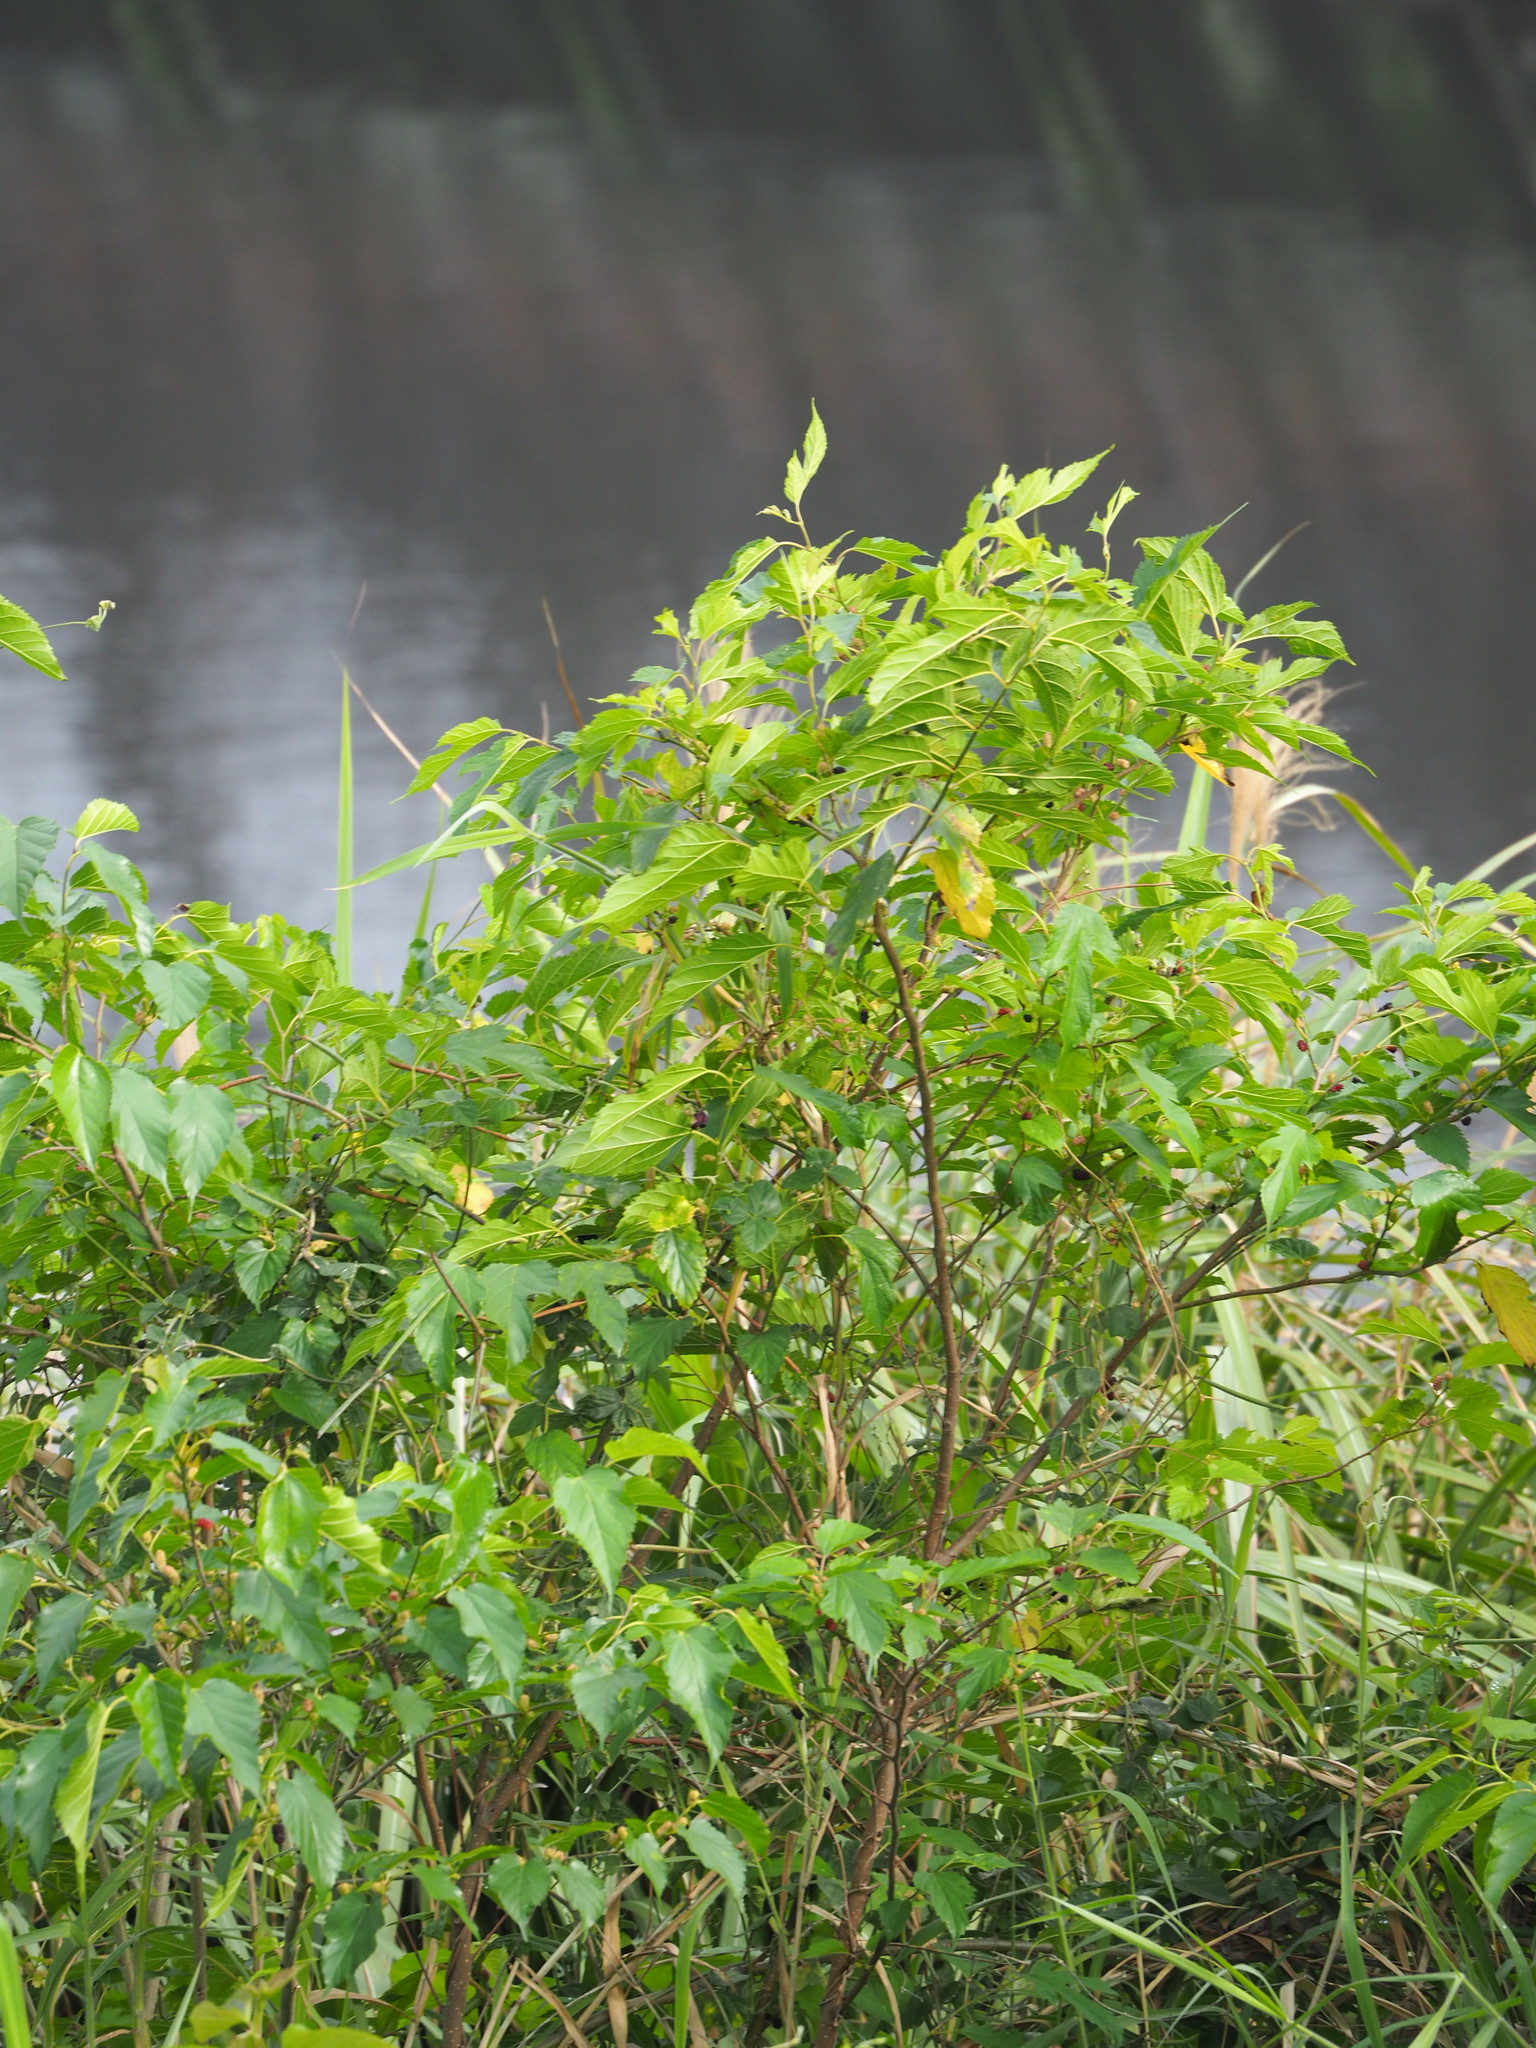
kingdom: Plantae
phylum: Tracheophyta
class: Magnoliopsida
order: Rosales
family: Moraceae
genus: Morus
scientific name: Morus indica
